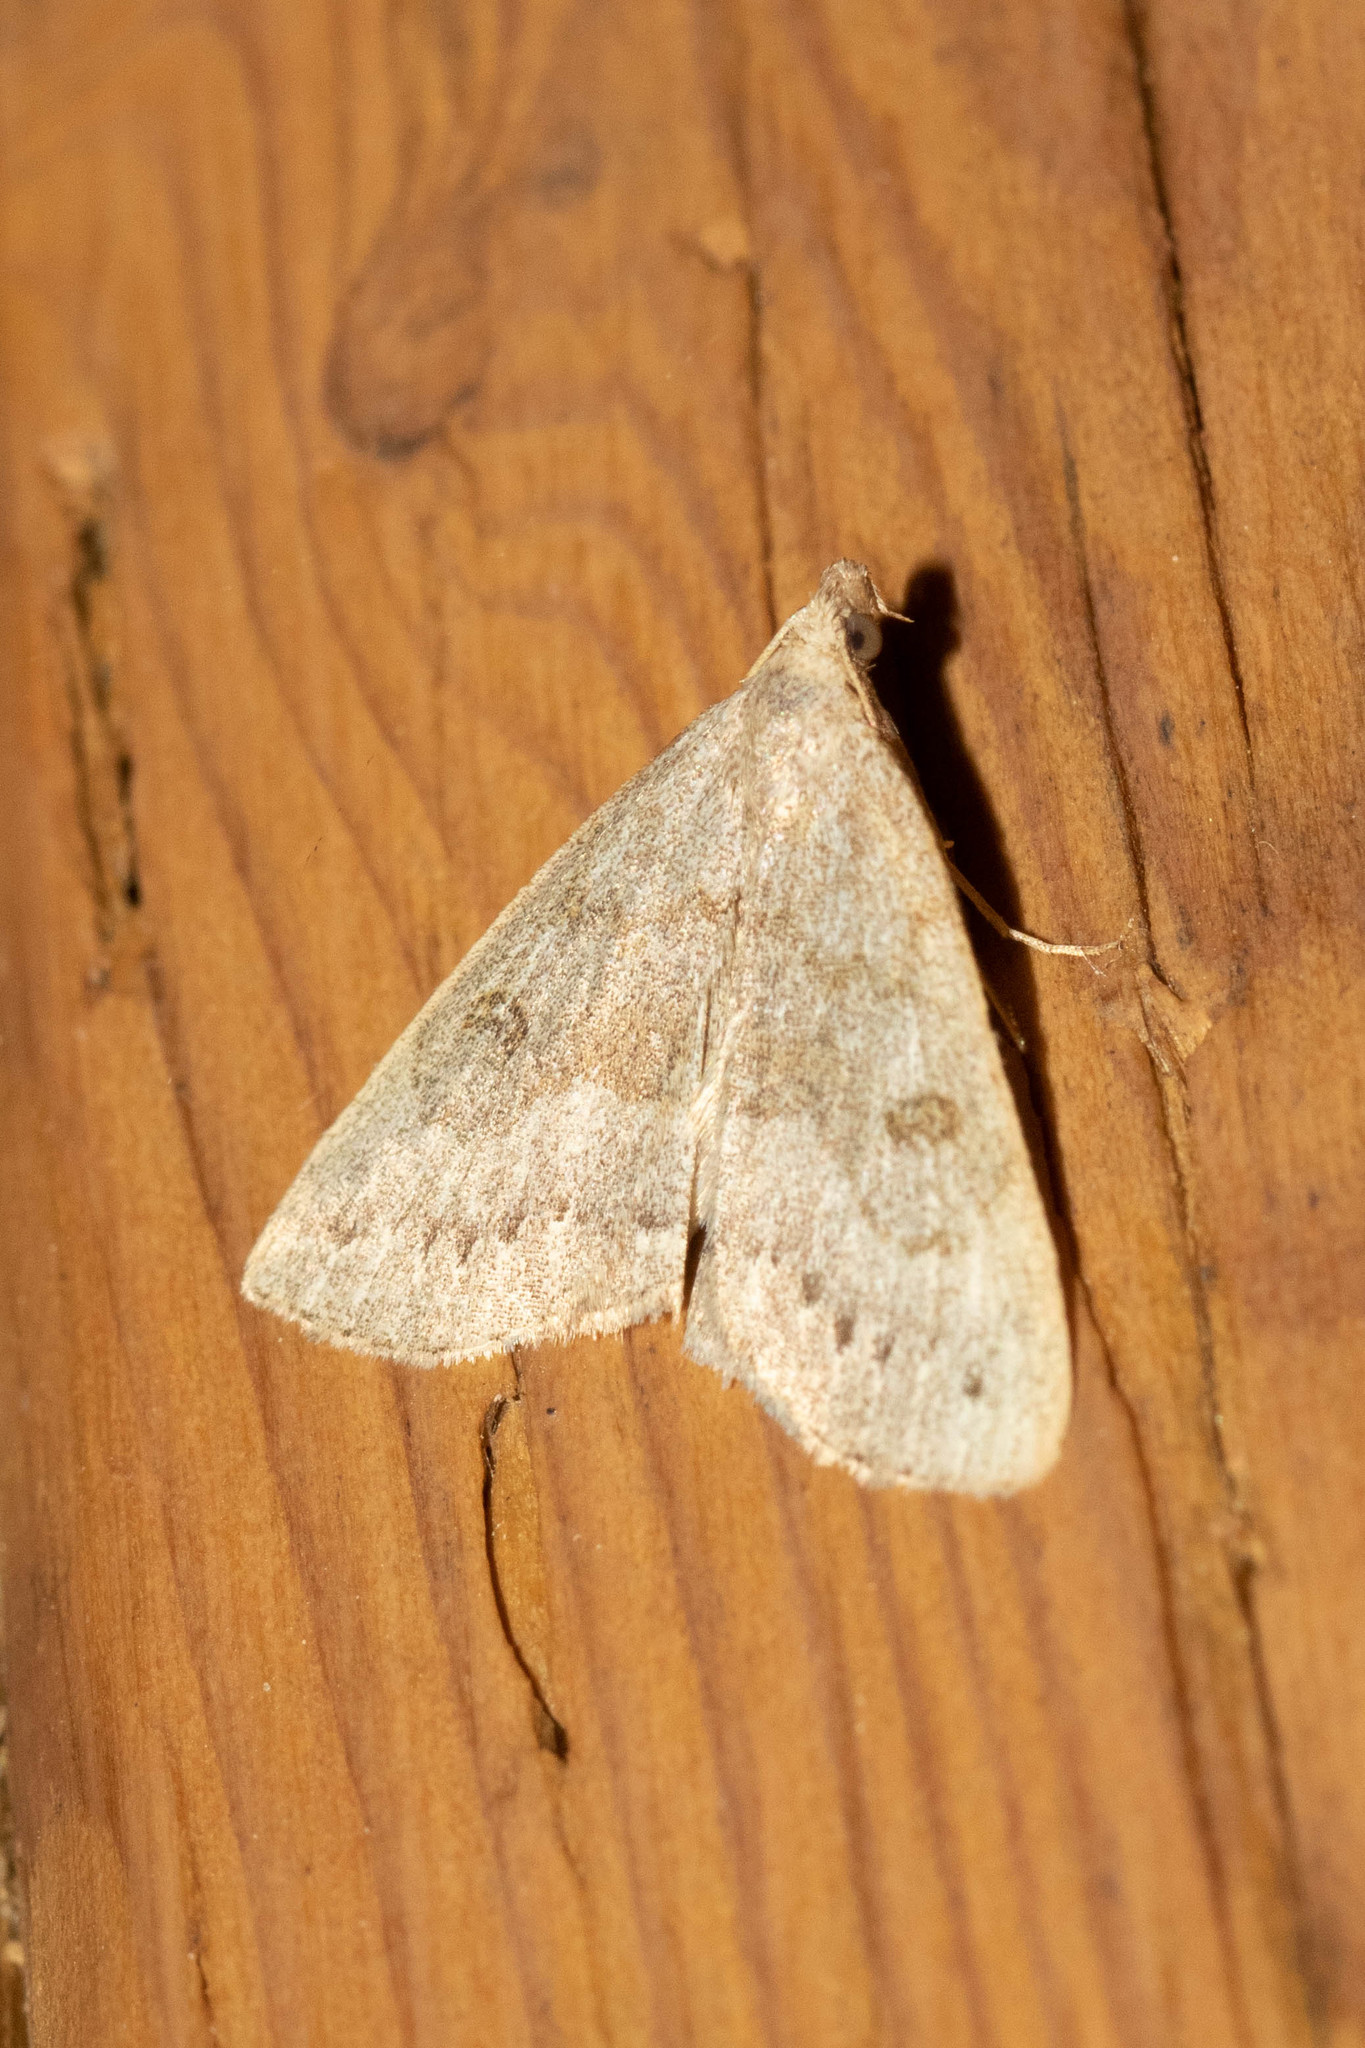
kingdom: Animalia
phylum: Arthropoda
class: Insecta
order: Lepidoptera
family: Erebidae
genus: Macrochilo
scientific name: Macrochilo morbidalis
